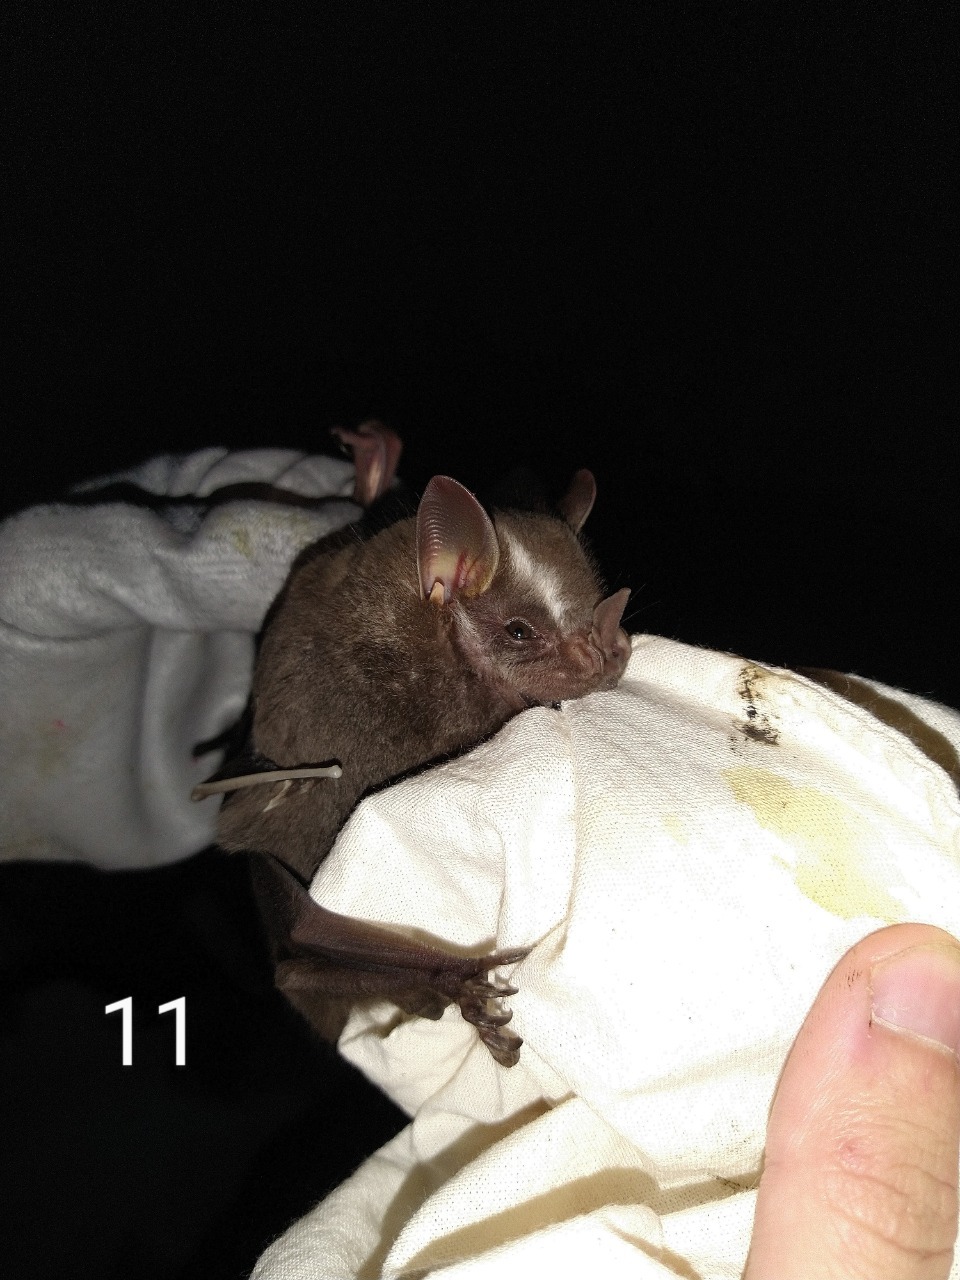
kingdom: Animalia
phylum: Chordata
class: Mammalia
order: Chiroptera
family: Phyllostomidae
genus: Artibeus
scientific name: Artibeus lituratus
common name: Great fruit-eating bat
